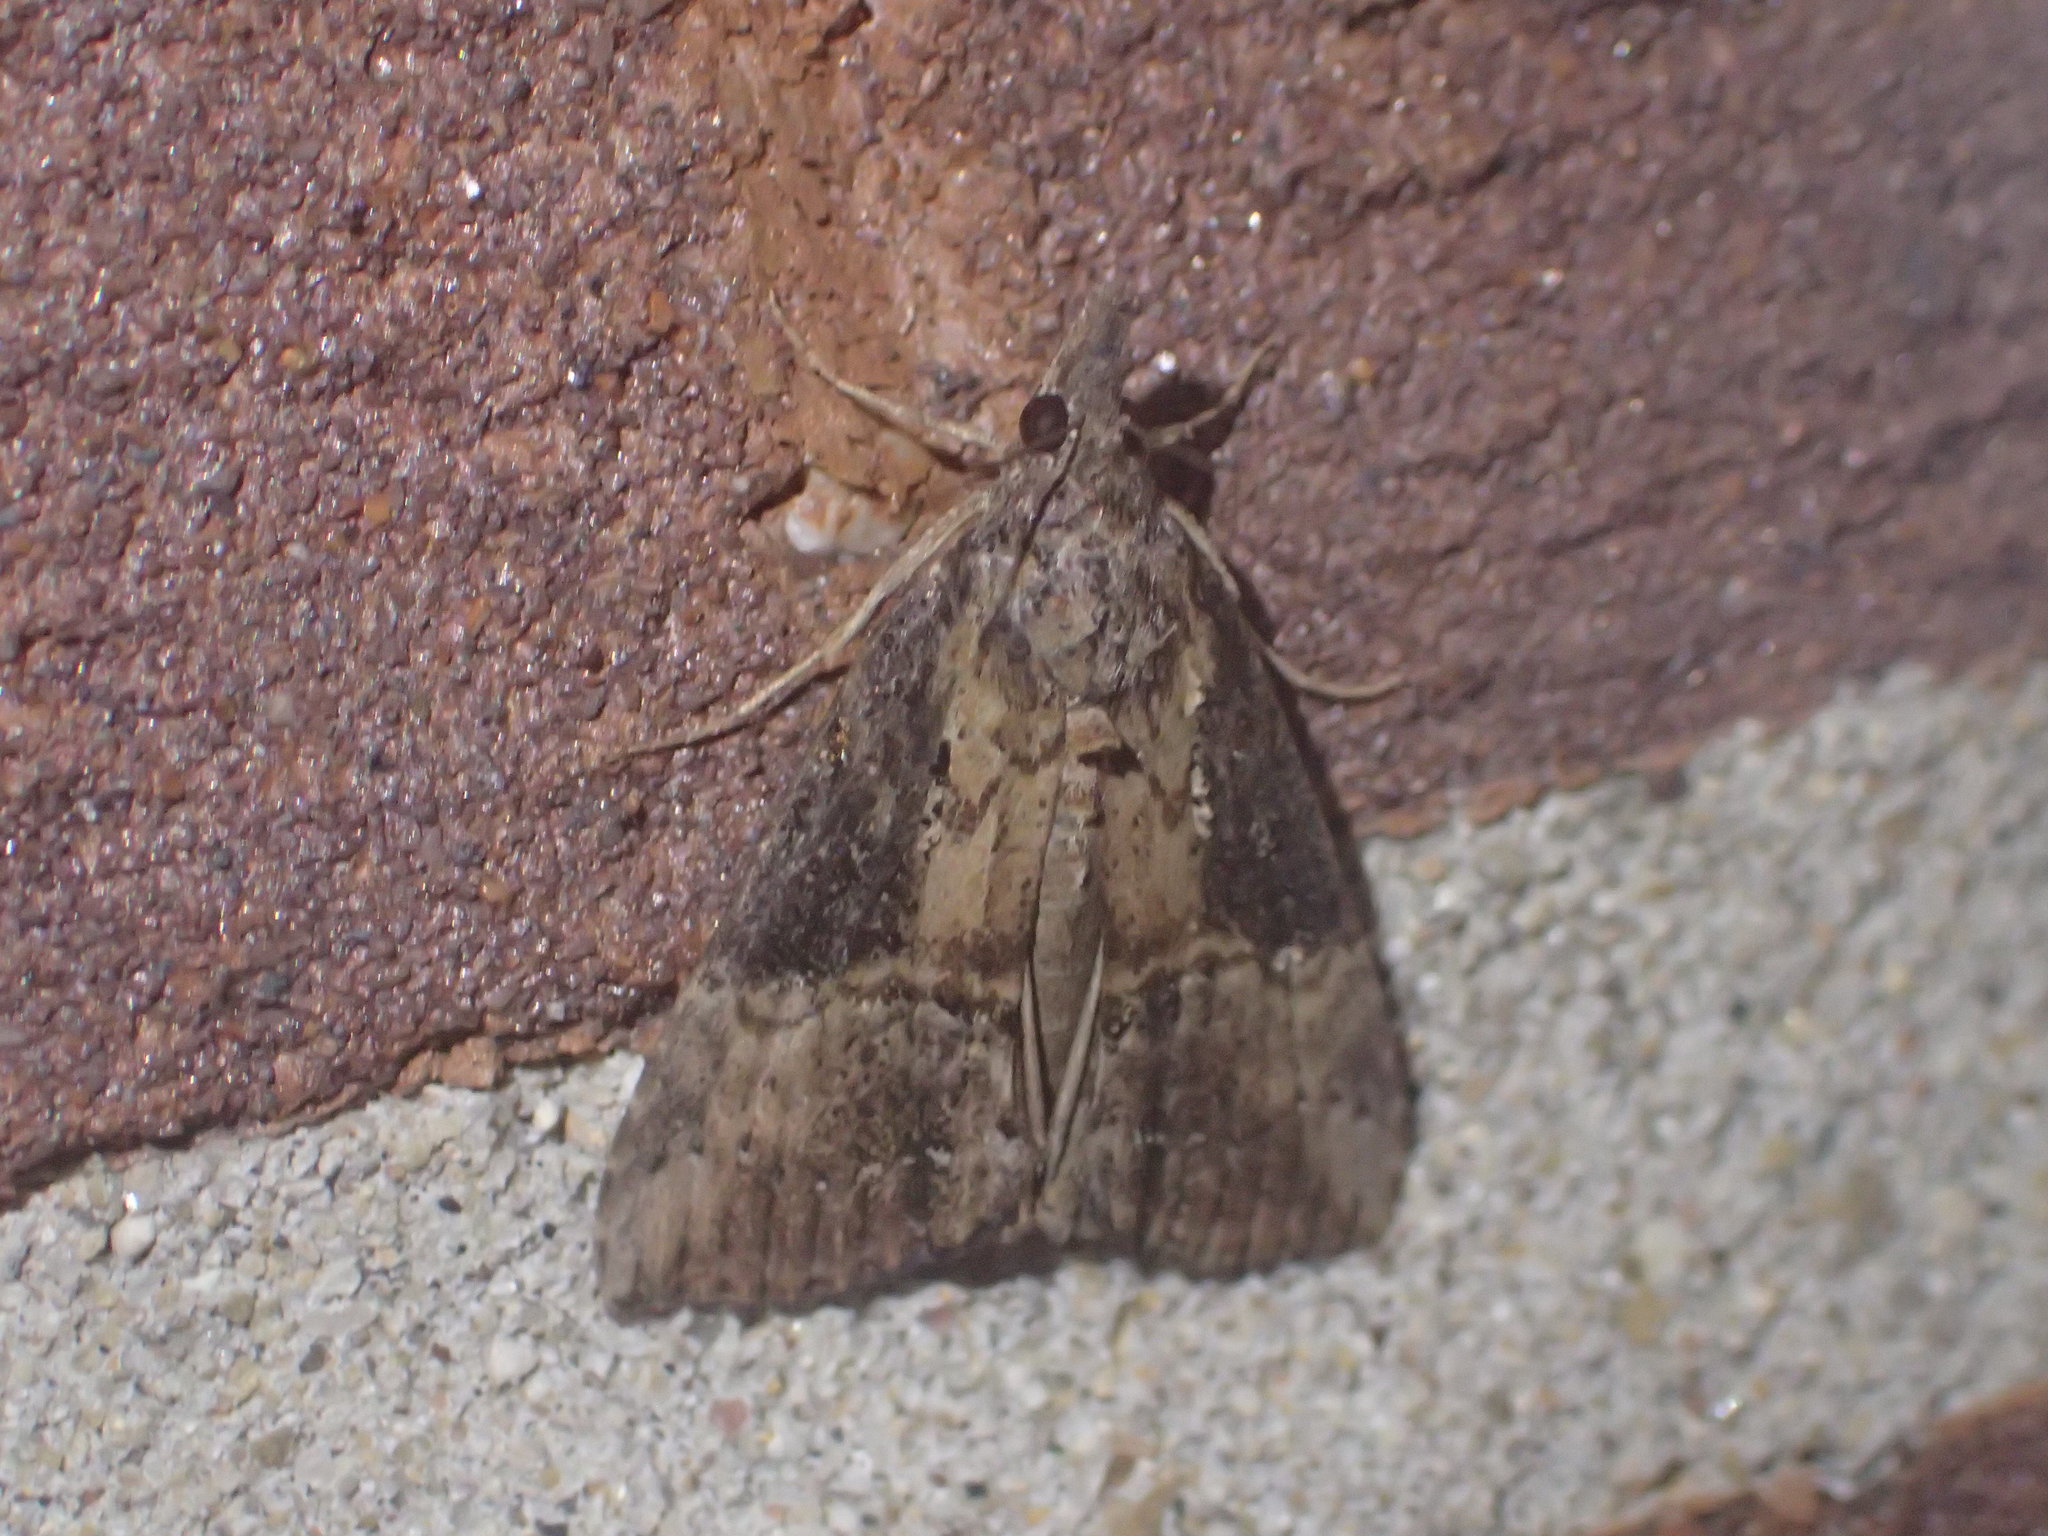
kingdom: Animalia
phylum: Arthropoda
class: Insecta
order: Lepidoptera
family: Erebidae
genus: Hypena
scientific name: Hypena scabra
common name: Green cloverworm
